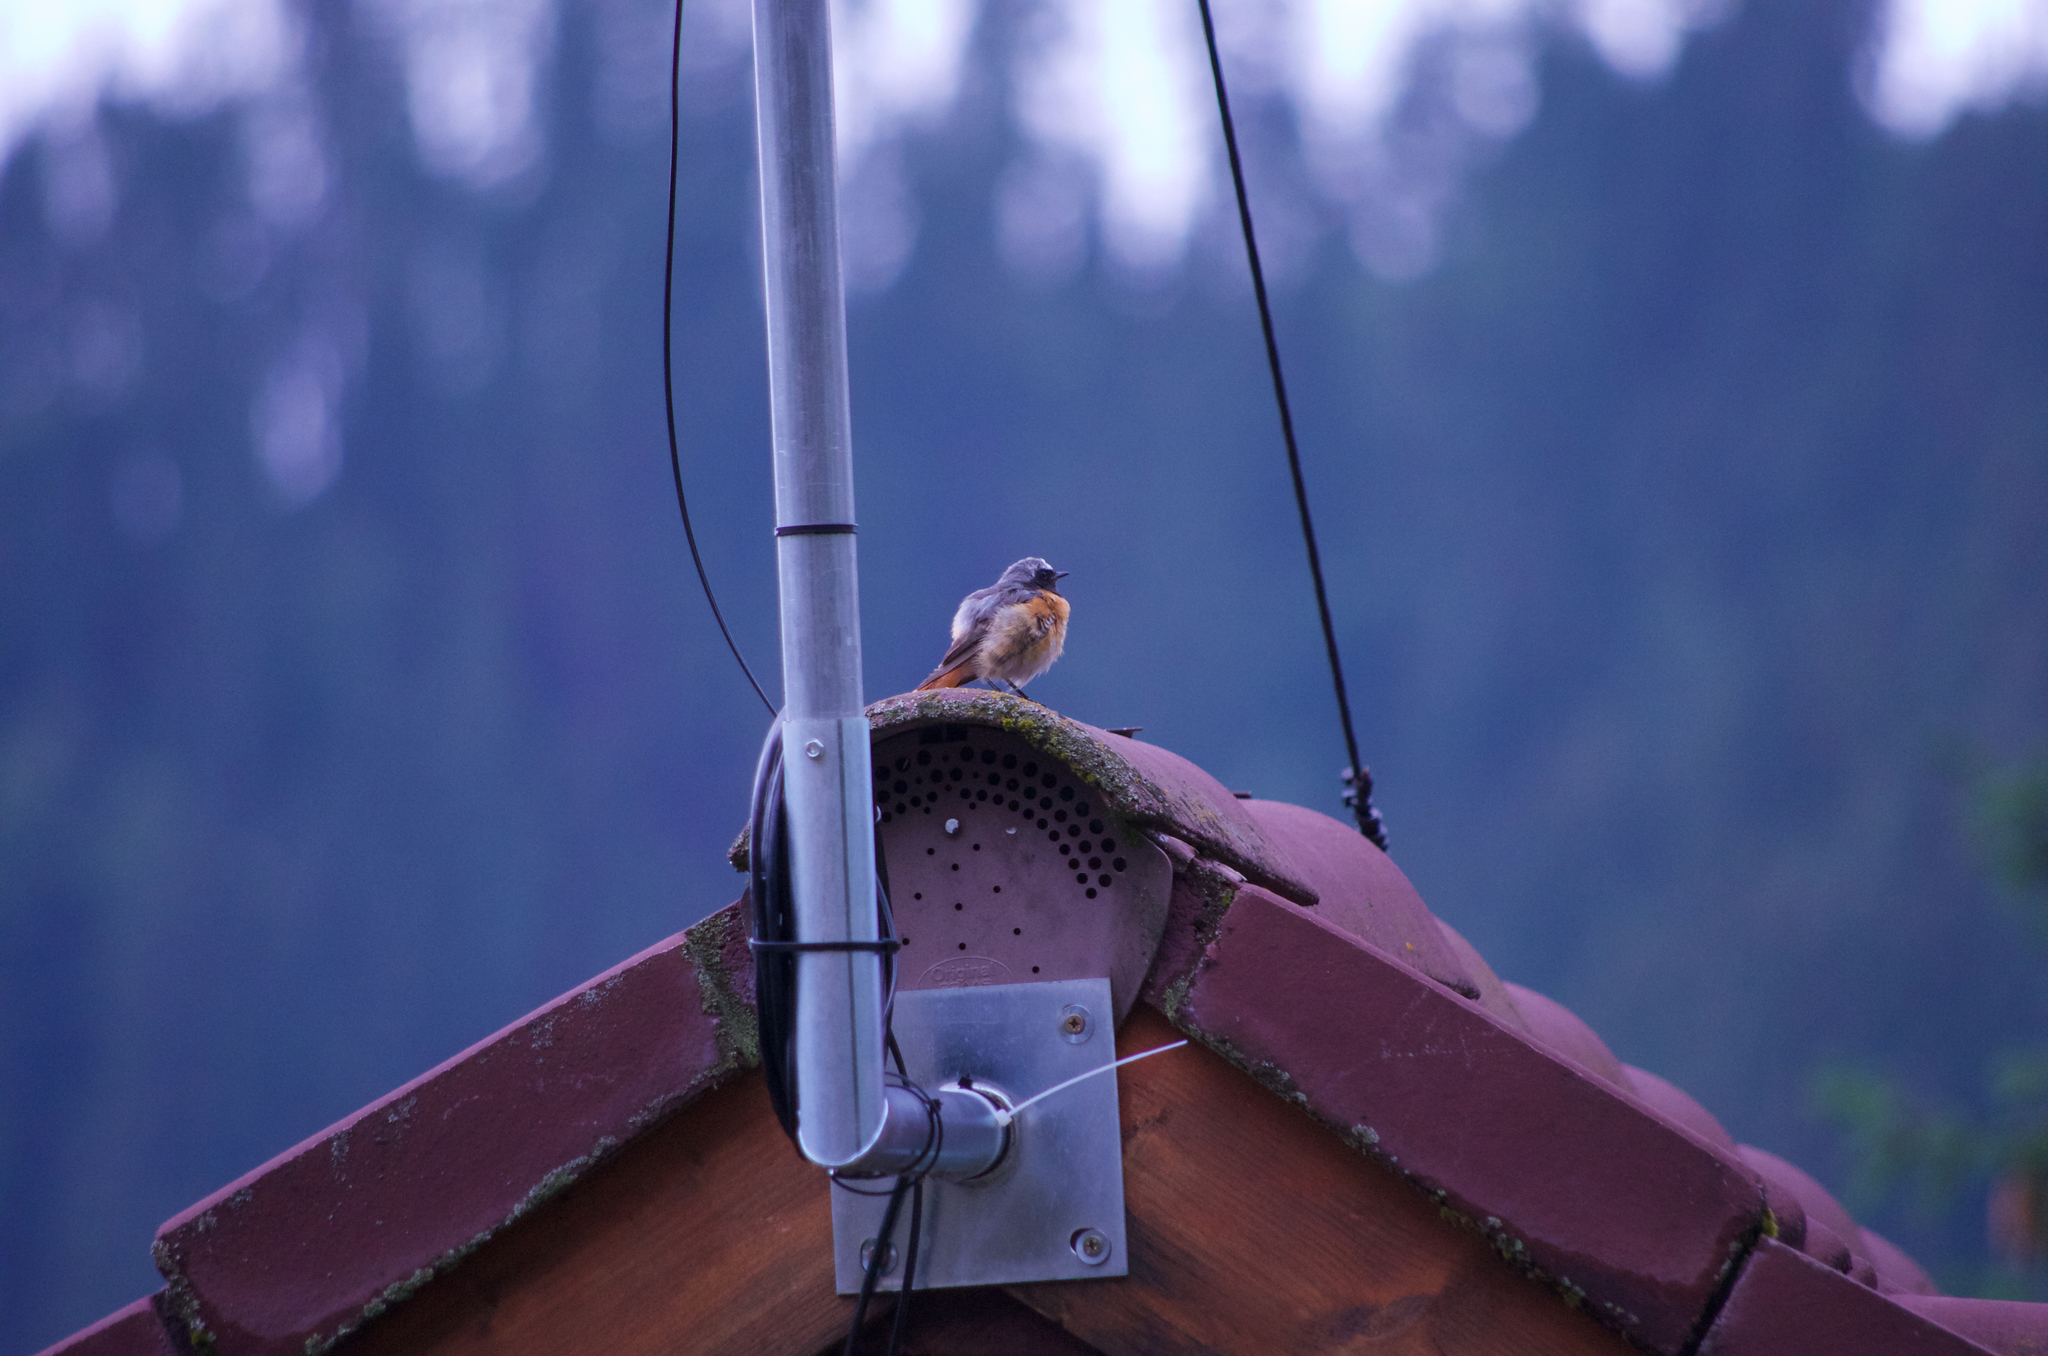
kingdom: Animalia
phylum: Chordata
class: Aves
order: Passeriformes
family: Muscicapidae
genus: Phoenicurus
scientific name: Phoenicurus phoenicurus
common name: Common redstart
